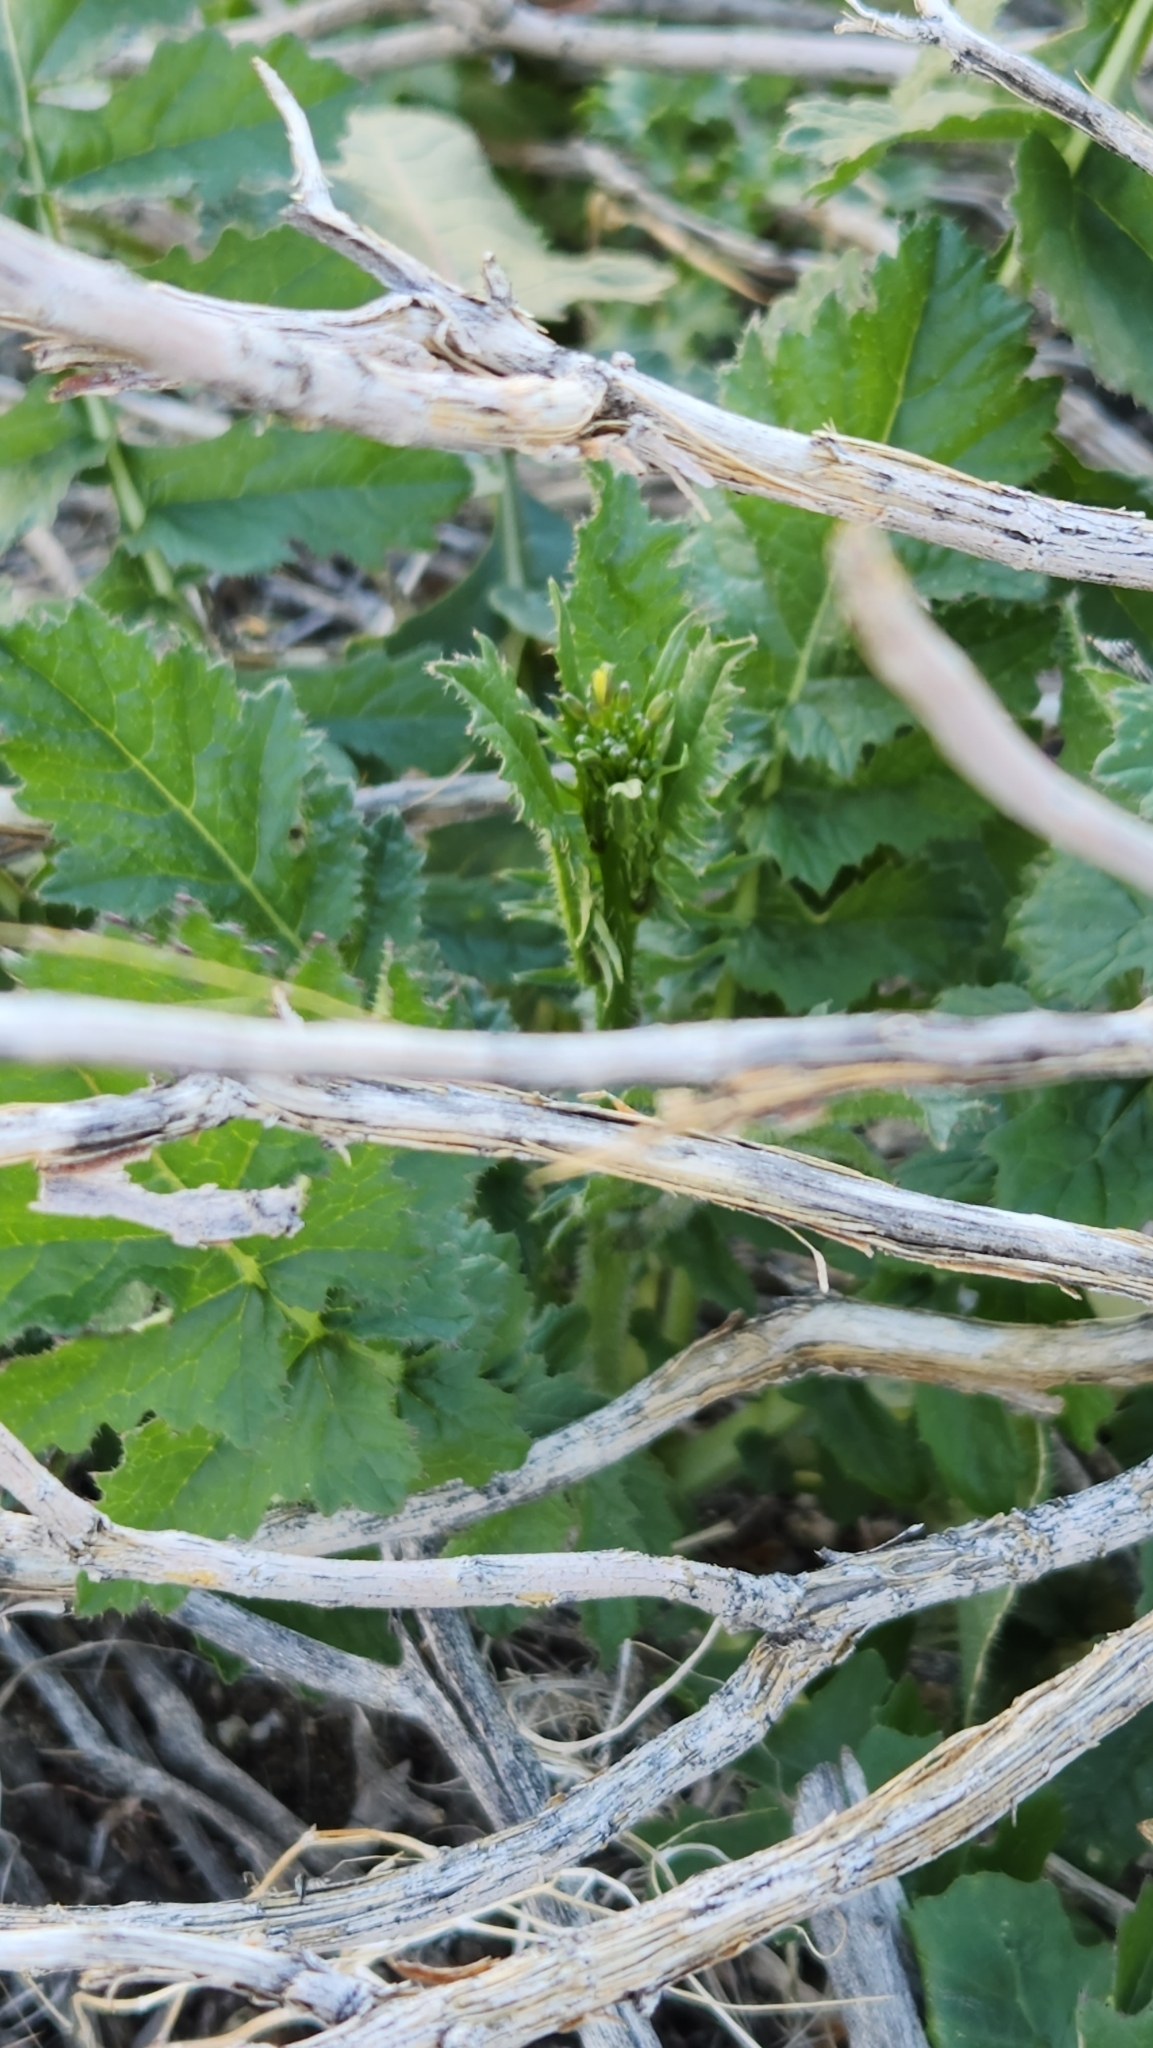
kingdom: Plantae
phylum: Tracheophyta
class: Magnoliopsida
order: Brassicales
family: Brassicaceae
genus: Brassica
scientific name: Brassica tournefortii
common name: Pale cabbage
